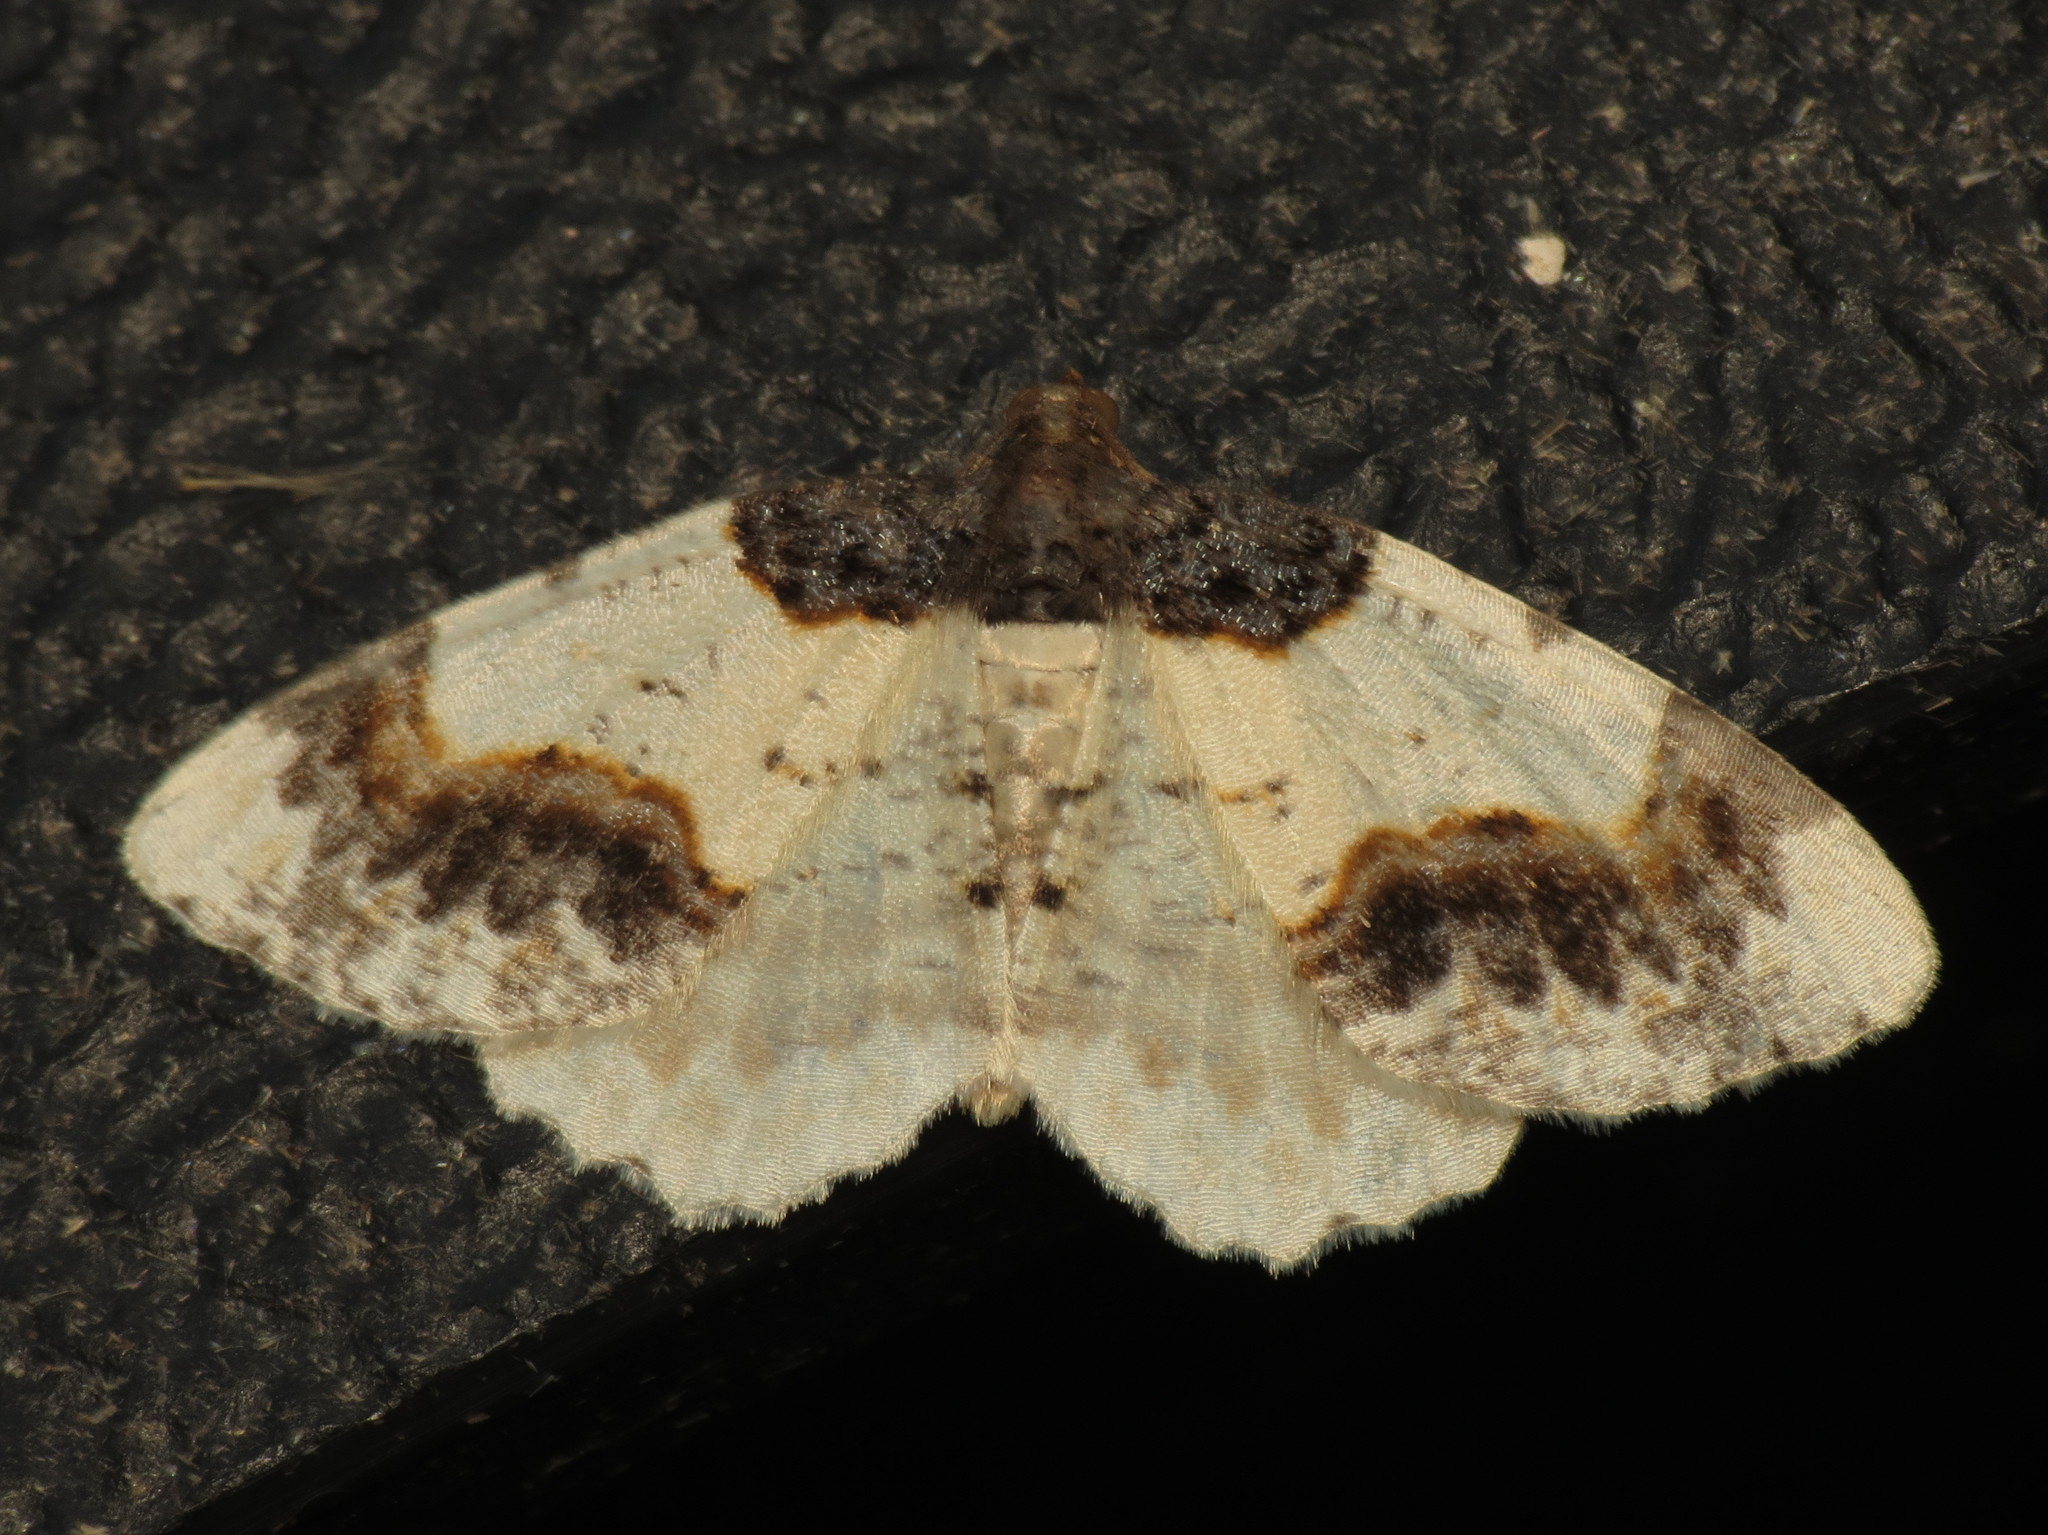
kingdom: Animalia
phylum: Arthropoda
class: Insecta
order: Lepidoptera
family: Geometridae
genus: Ligdia
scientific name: Ligdia adustata
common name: Scorched carpet
